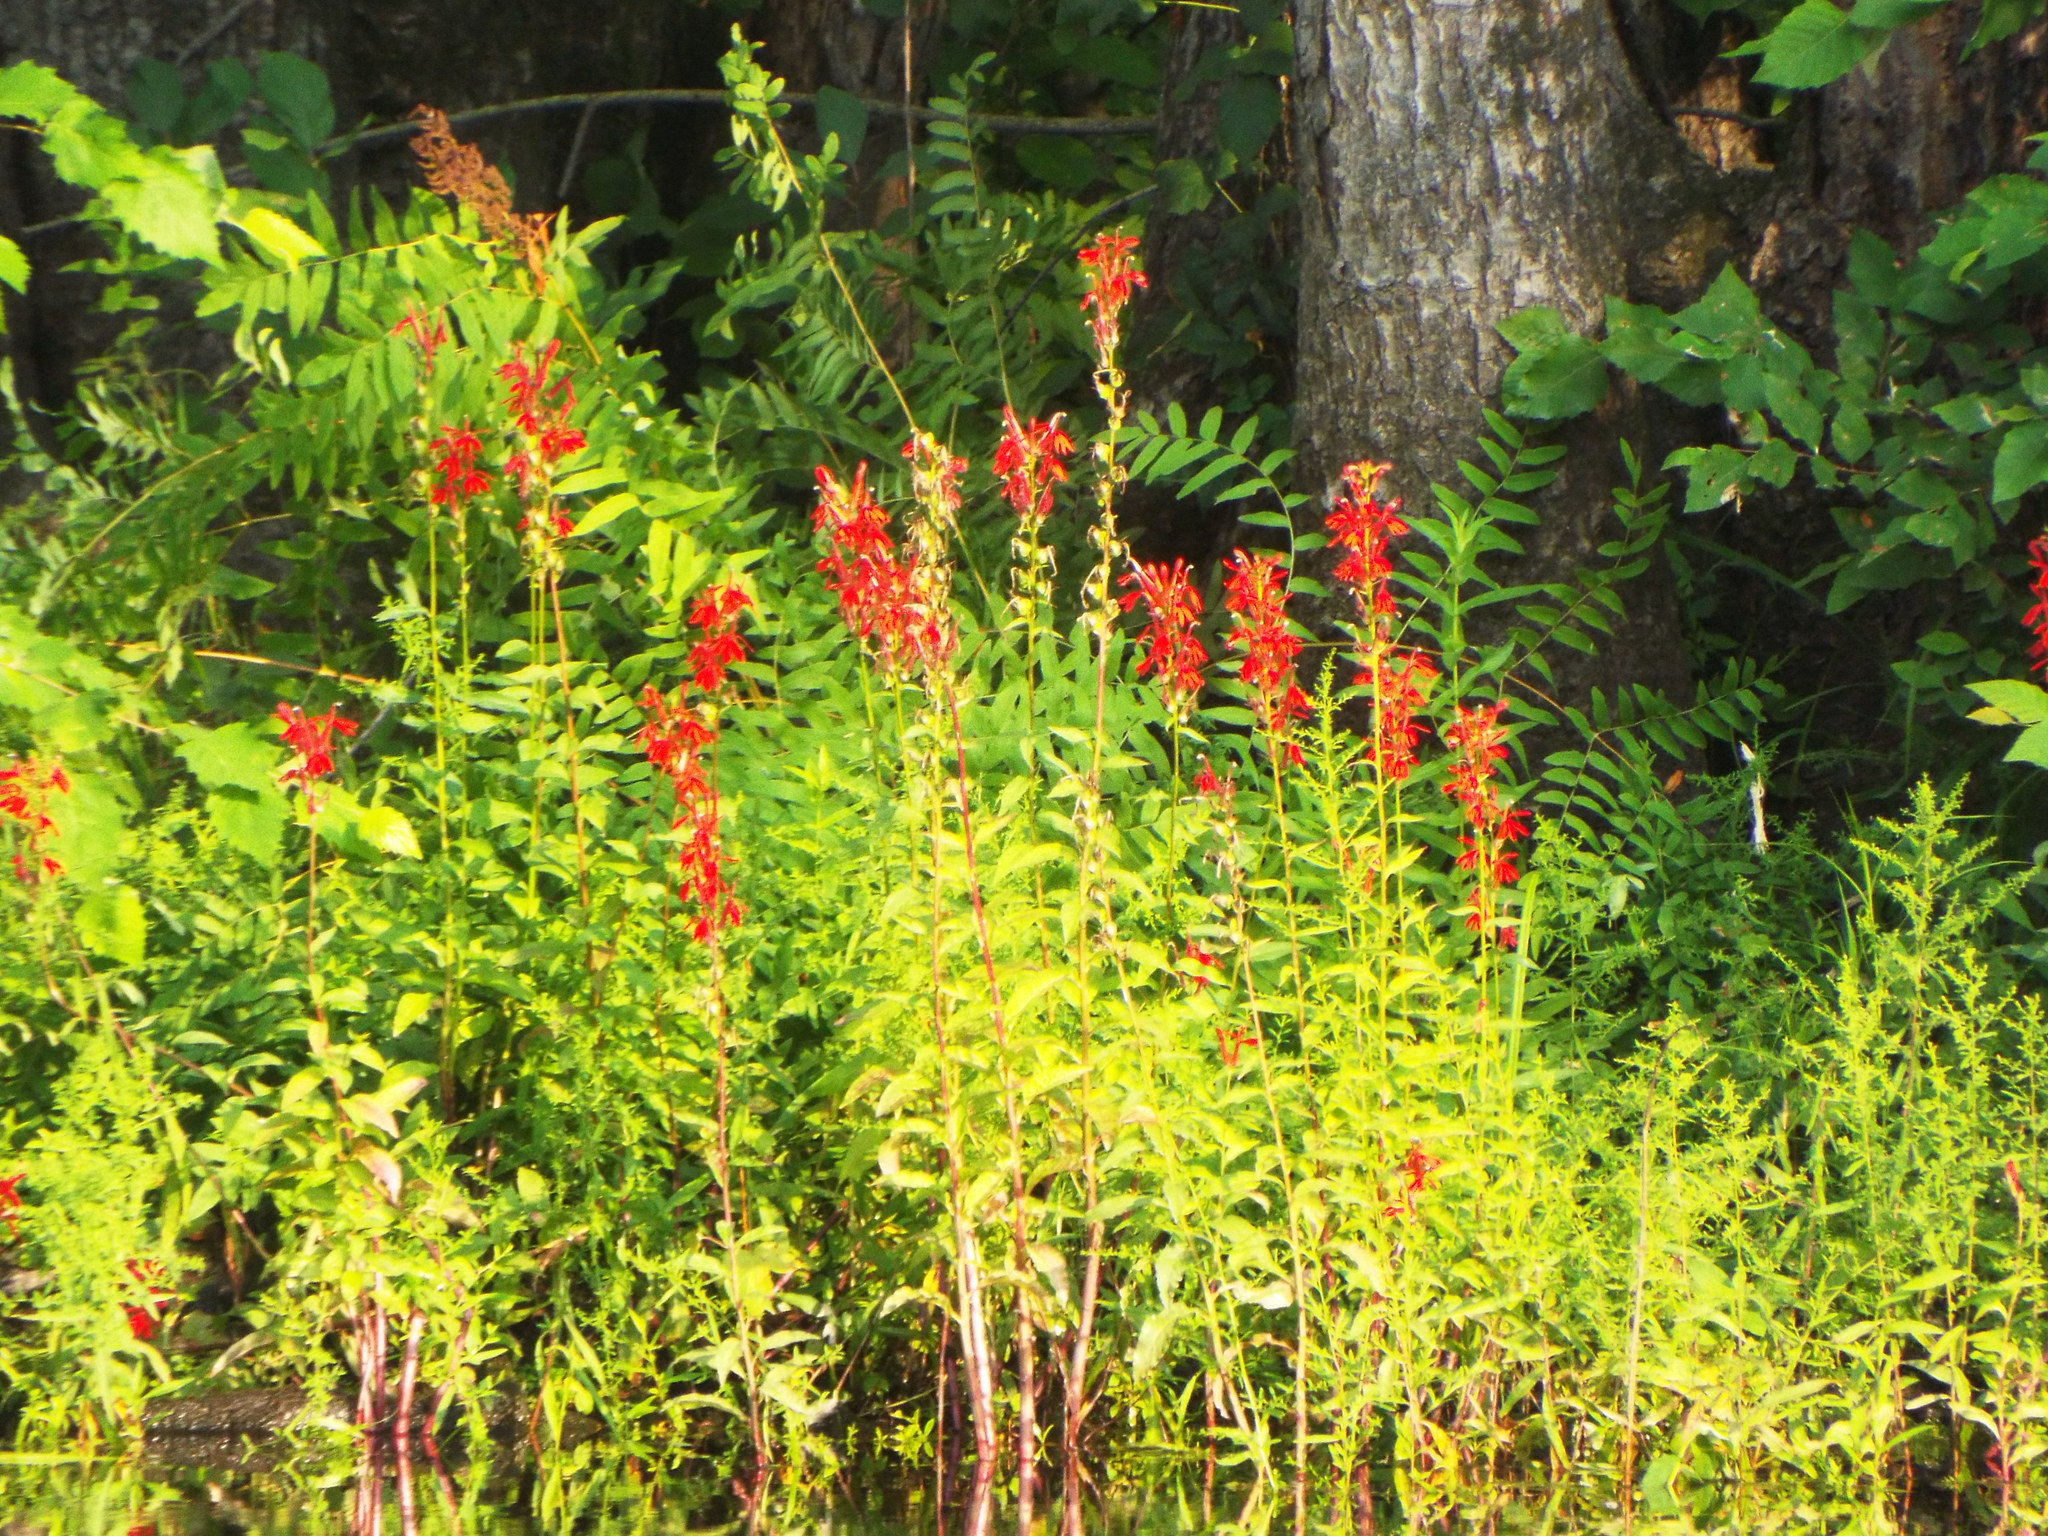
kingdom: Plantae
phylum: Tracheophyta
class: Magnoliopsida
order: Asterales
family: Campanulaceae
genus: Lobelia
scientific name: Lobelia cardinalis
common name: Cardinal flower
